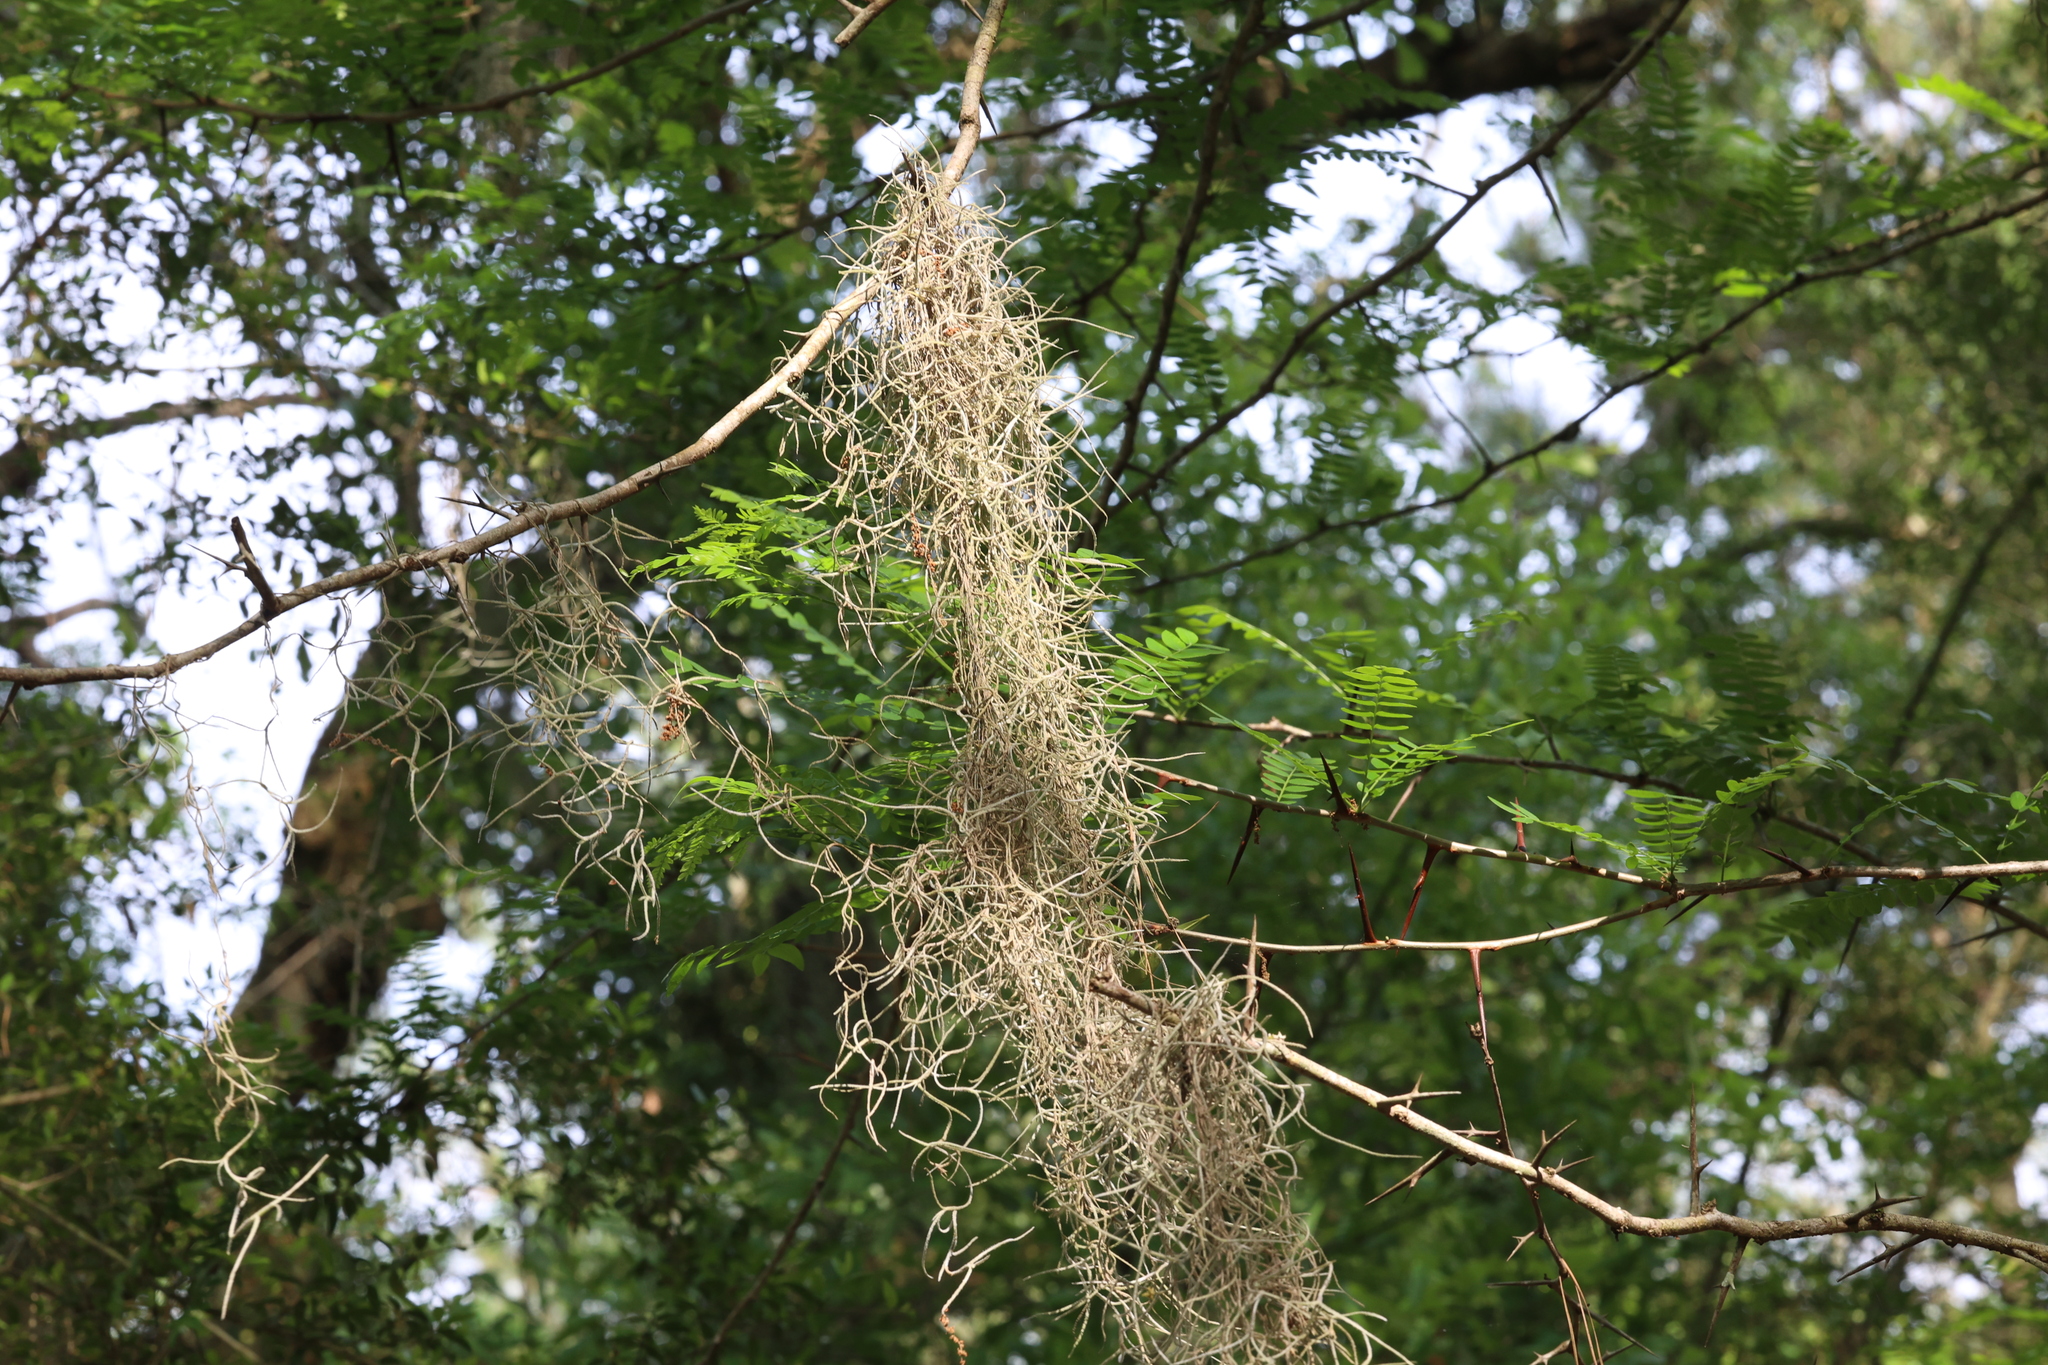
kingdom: Plantae
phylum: Tracheophyta
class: Liliopsida
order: Poales
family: Bromeliaceae
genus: Tillandsia
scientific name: Tillandsia usneoides
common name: Spanish moss
